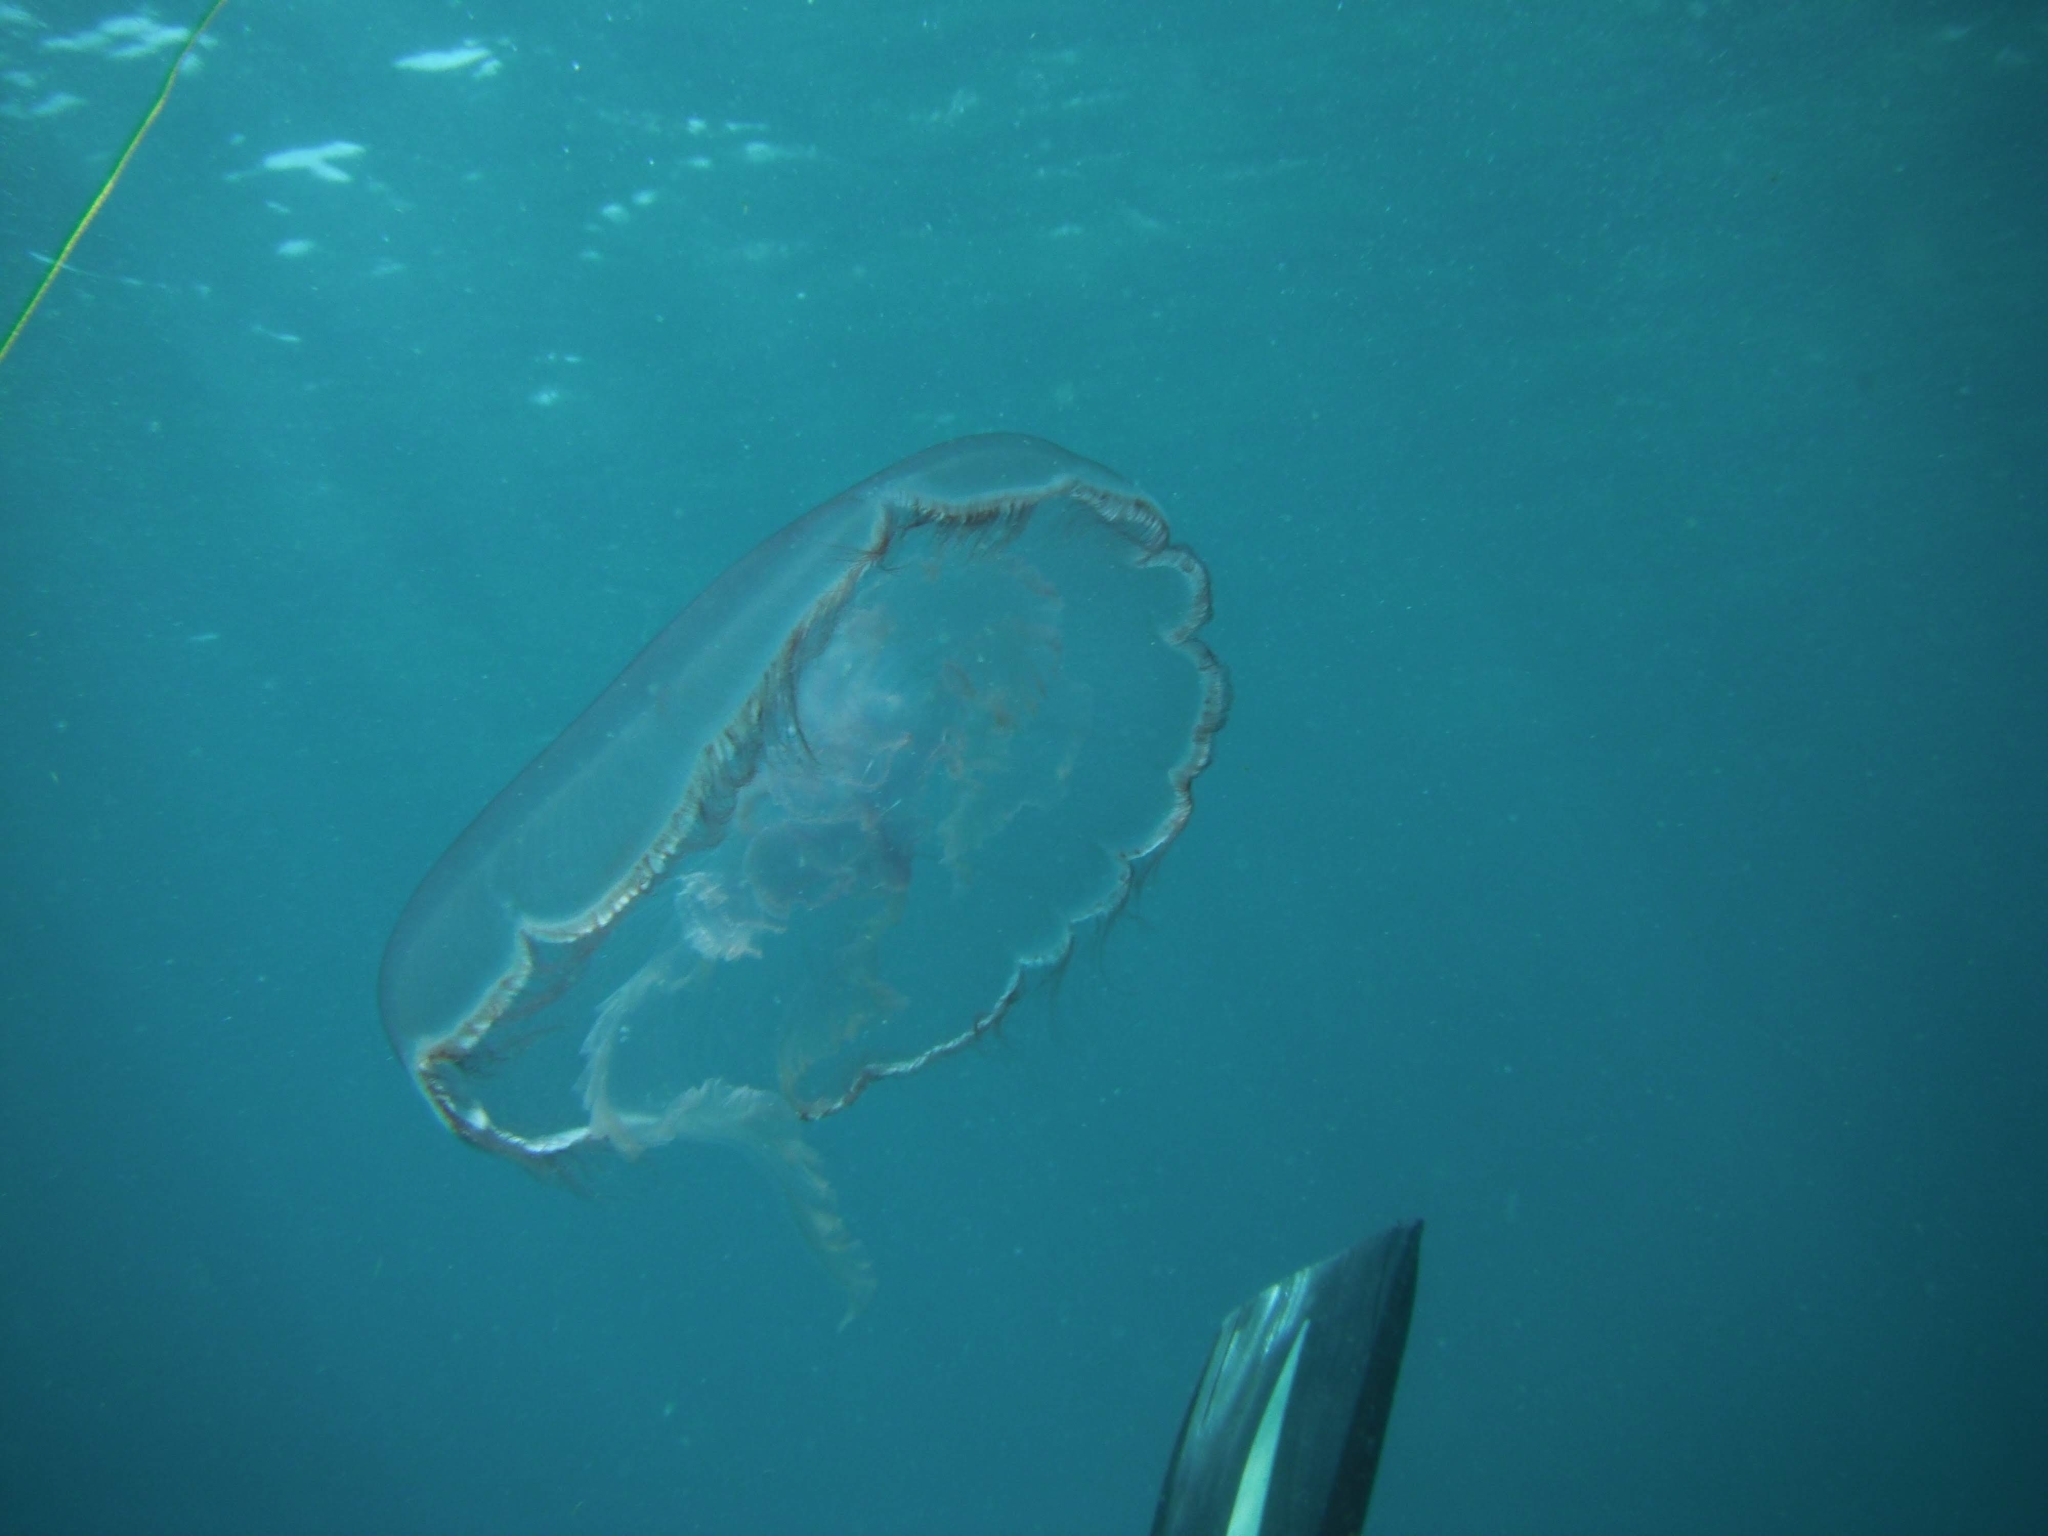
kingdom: Animalia
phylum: Cnidaria
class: Scyphozoa
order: Semaeostomeae
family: Ulmaridae
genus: Aurelia
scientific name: Aurelia marginalis
